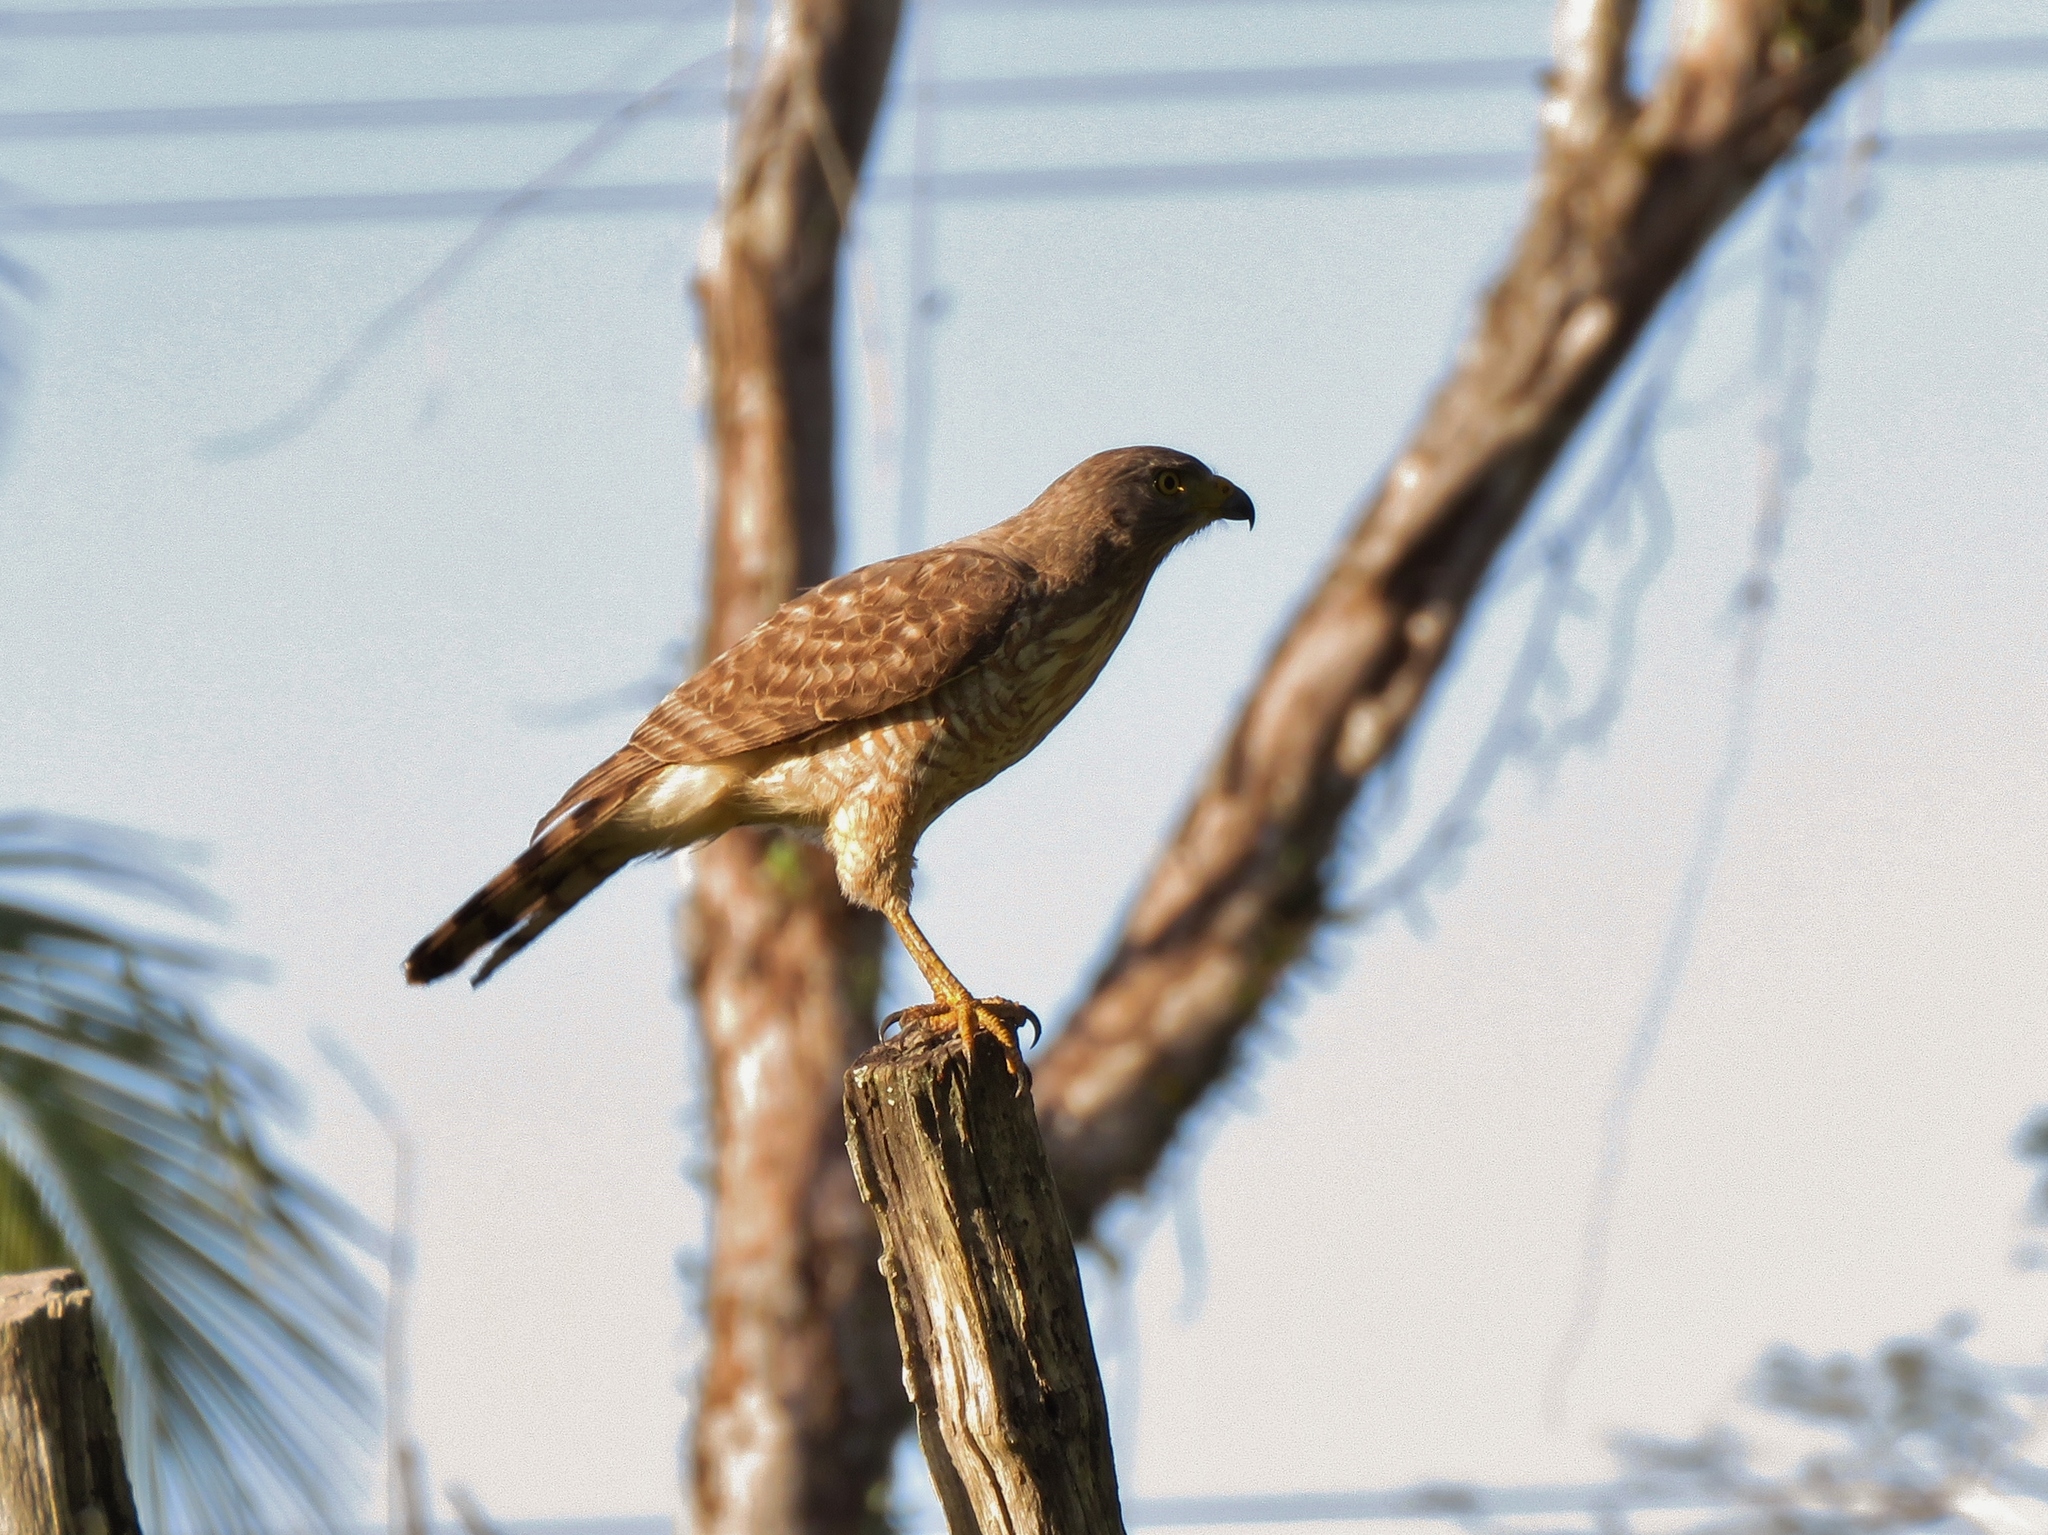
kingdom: Animalia
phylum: Chordata
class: Aves
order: Accipitriformes
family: Accipitridae
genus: Rupornis
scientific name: Rupornis magnirostris
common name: Roadside hawk
